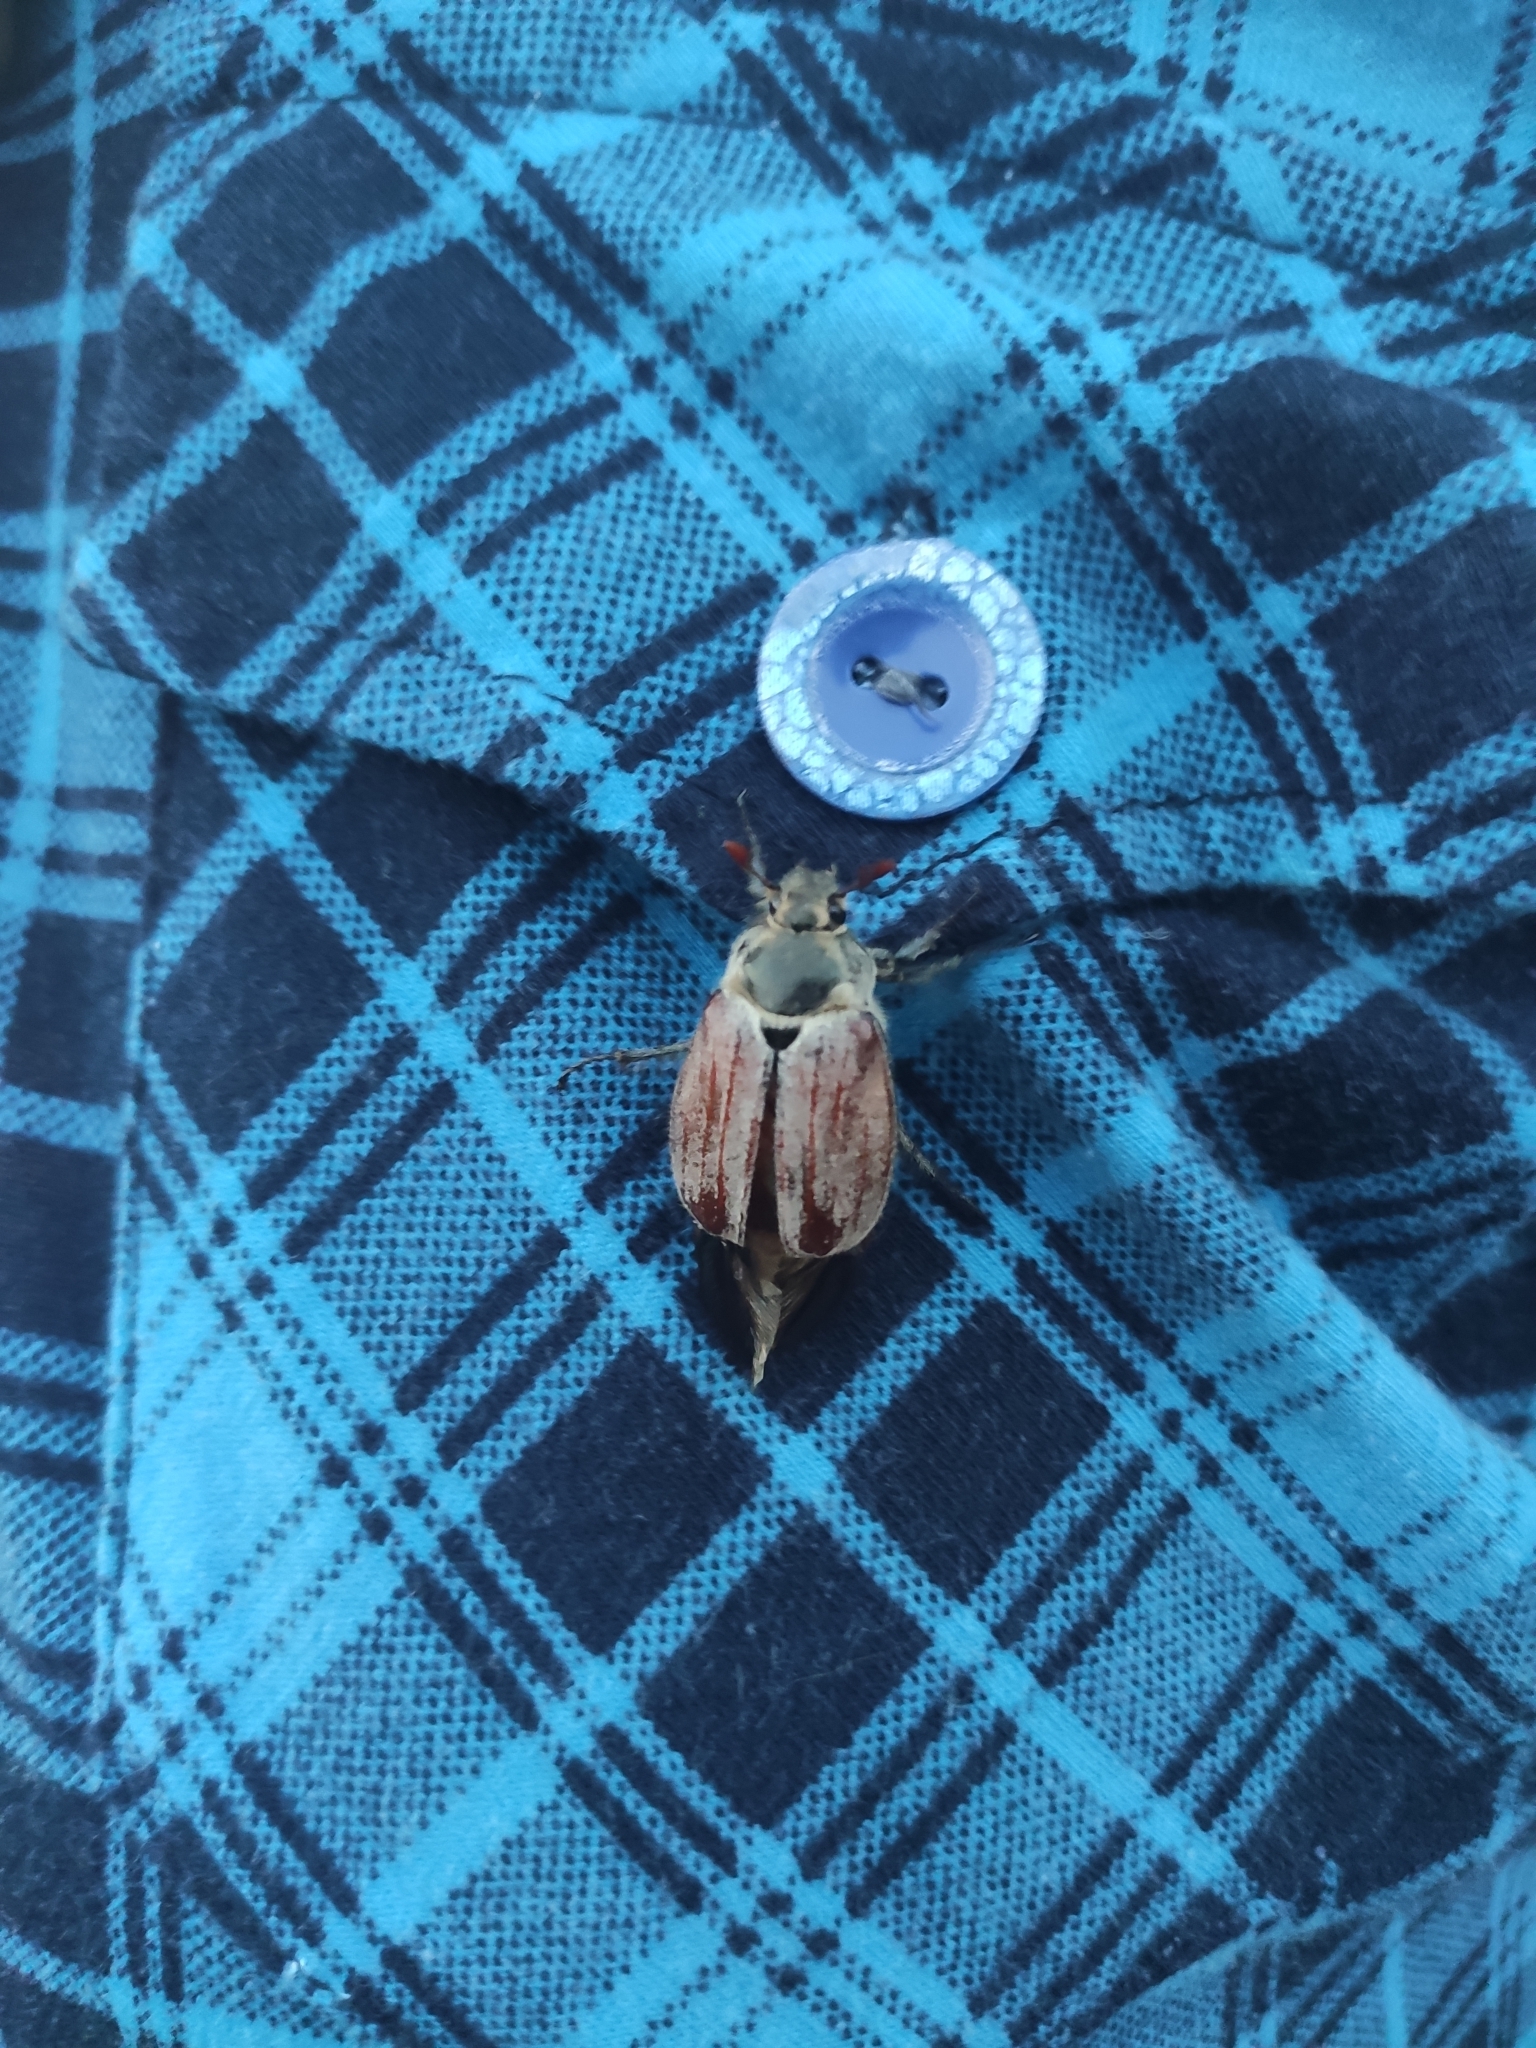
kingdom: Animalia
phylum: Arthropoda
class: Insecta
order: Coleoptera
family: Scarabaeidae
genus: Melolontha
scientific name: Melolontha hippocastani
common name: Chestnut cockchafer
